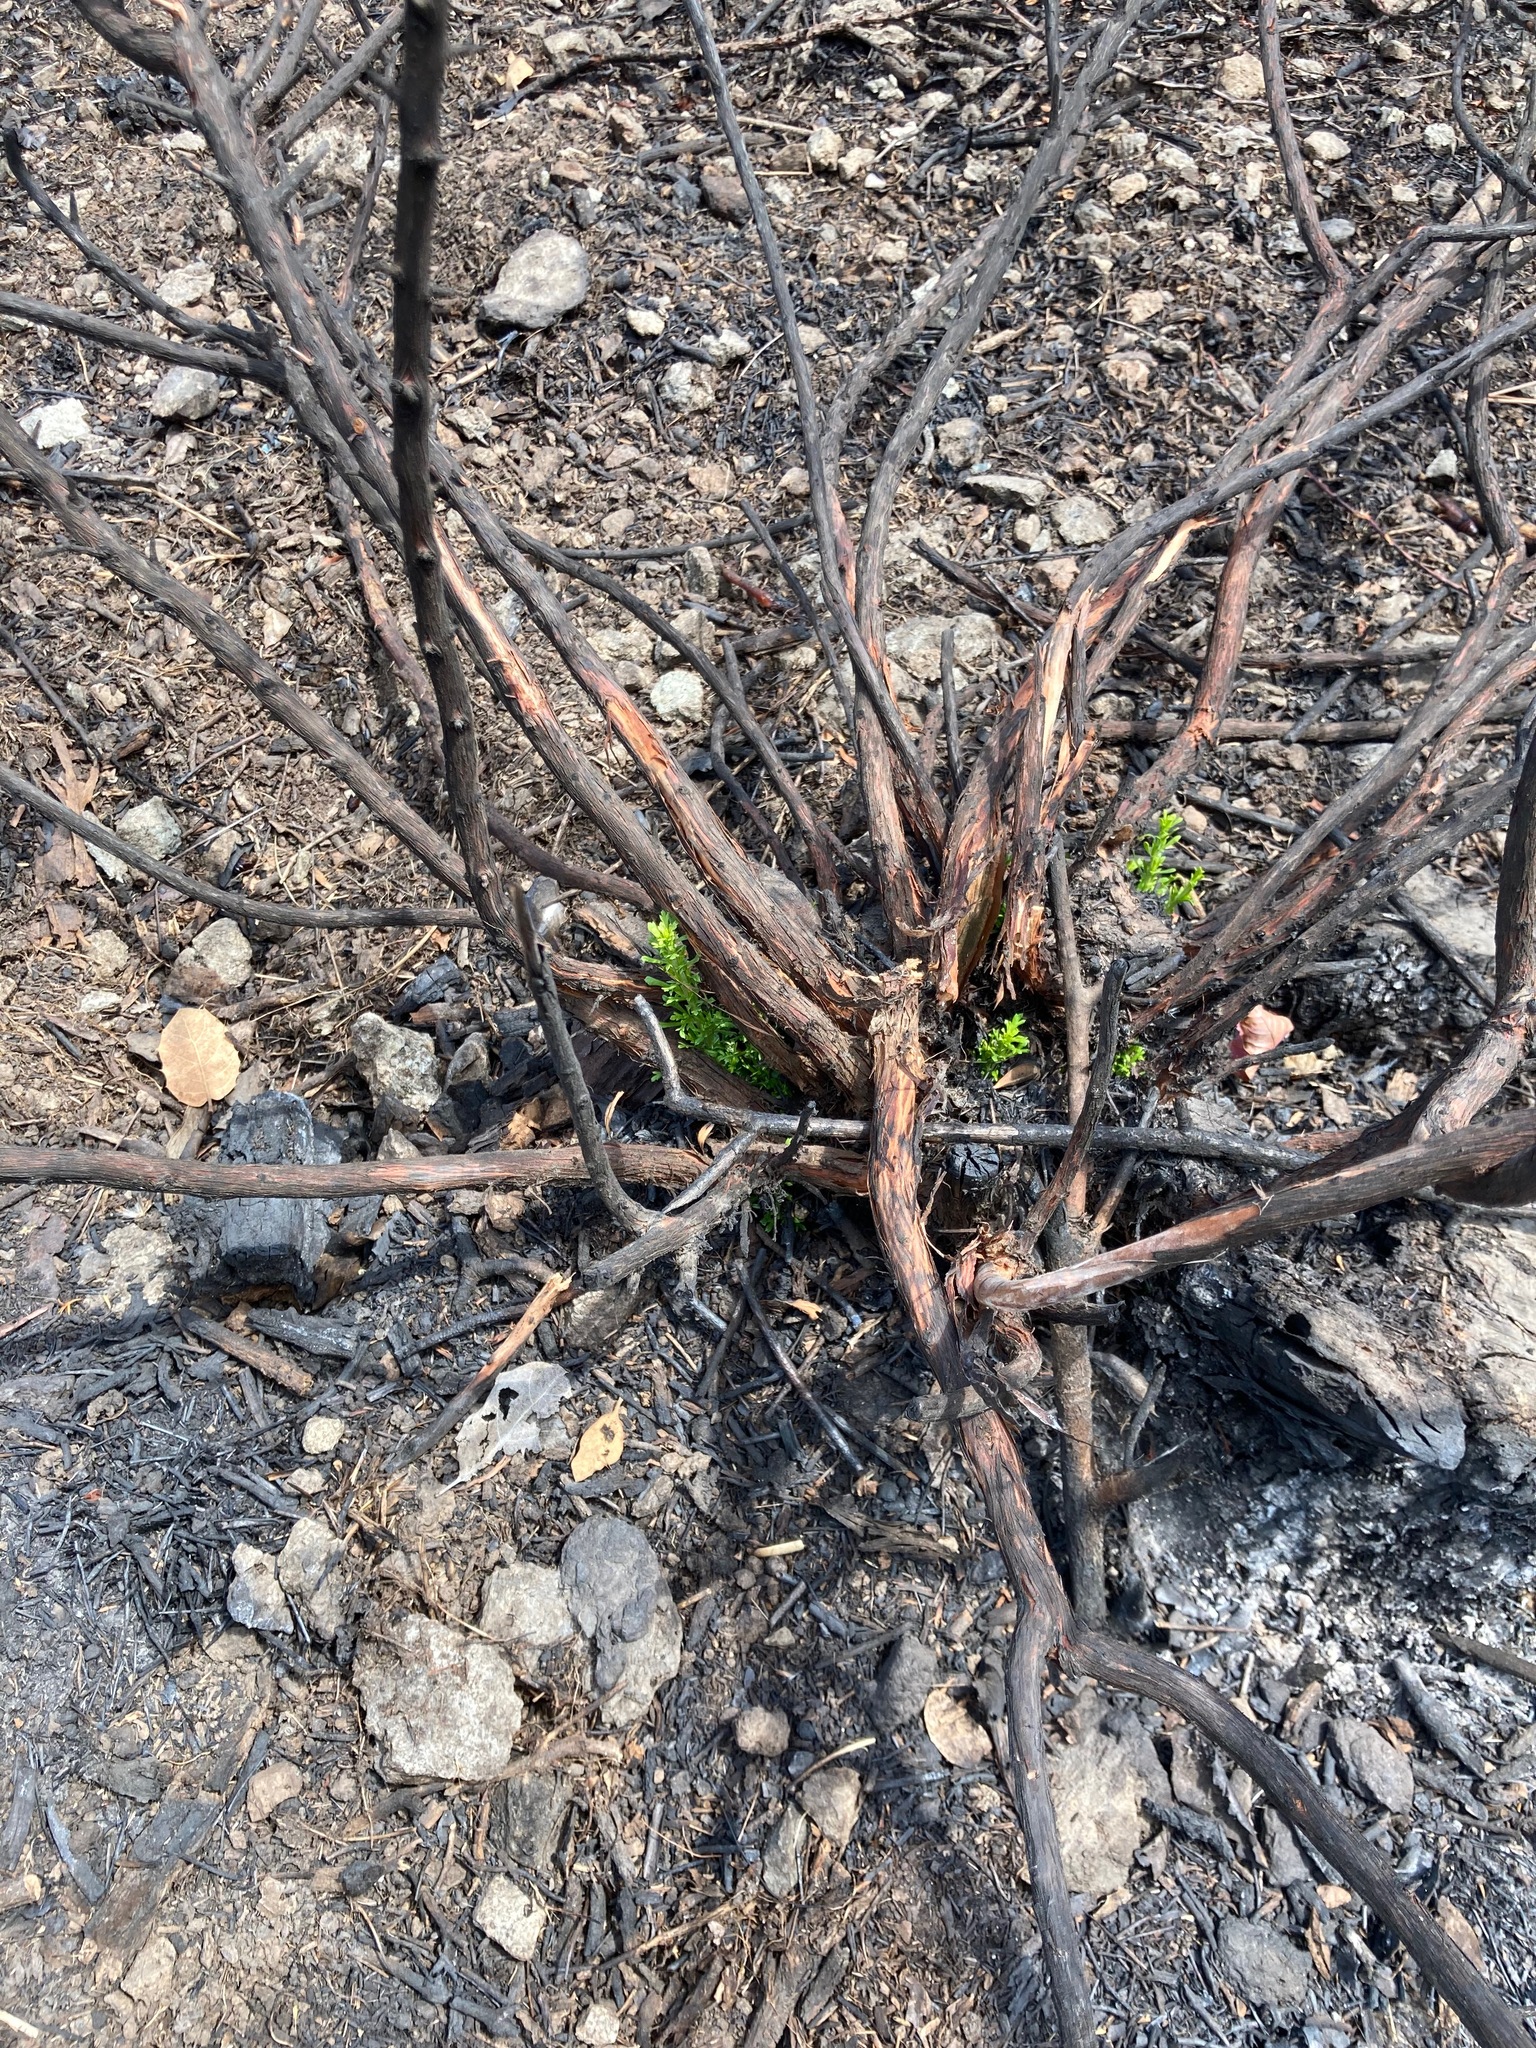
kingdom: Plantae
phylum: Tracheophyta
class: Magnoliopsida
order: Asterales
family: Asteraceae
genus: Baccharis
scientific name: Baccharis pilularis
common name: Coyotebrush
